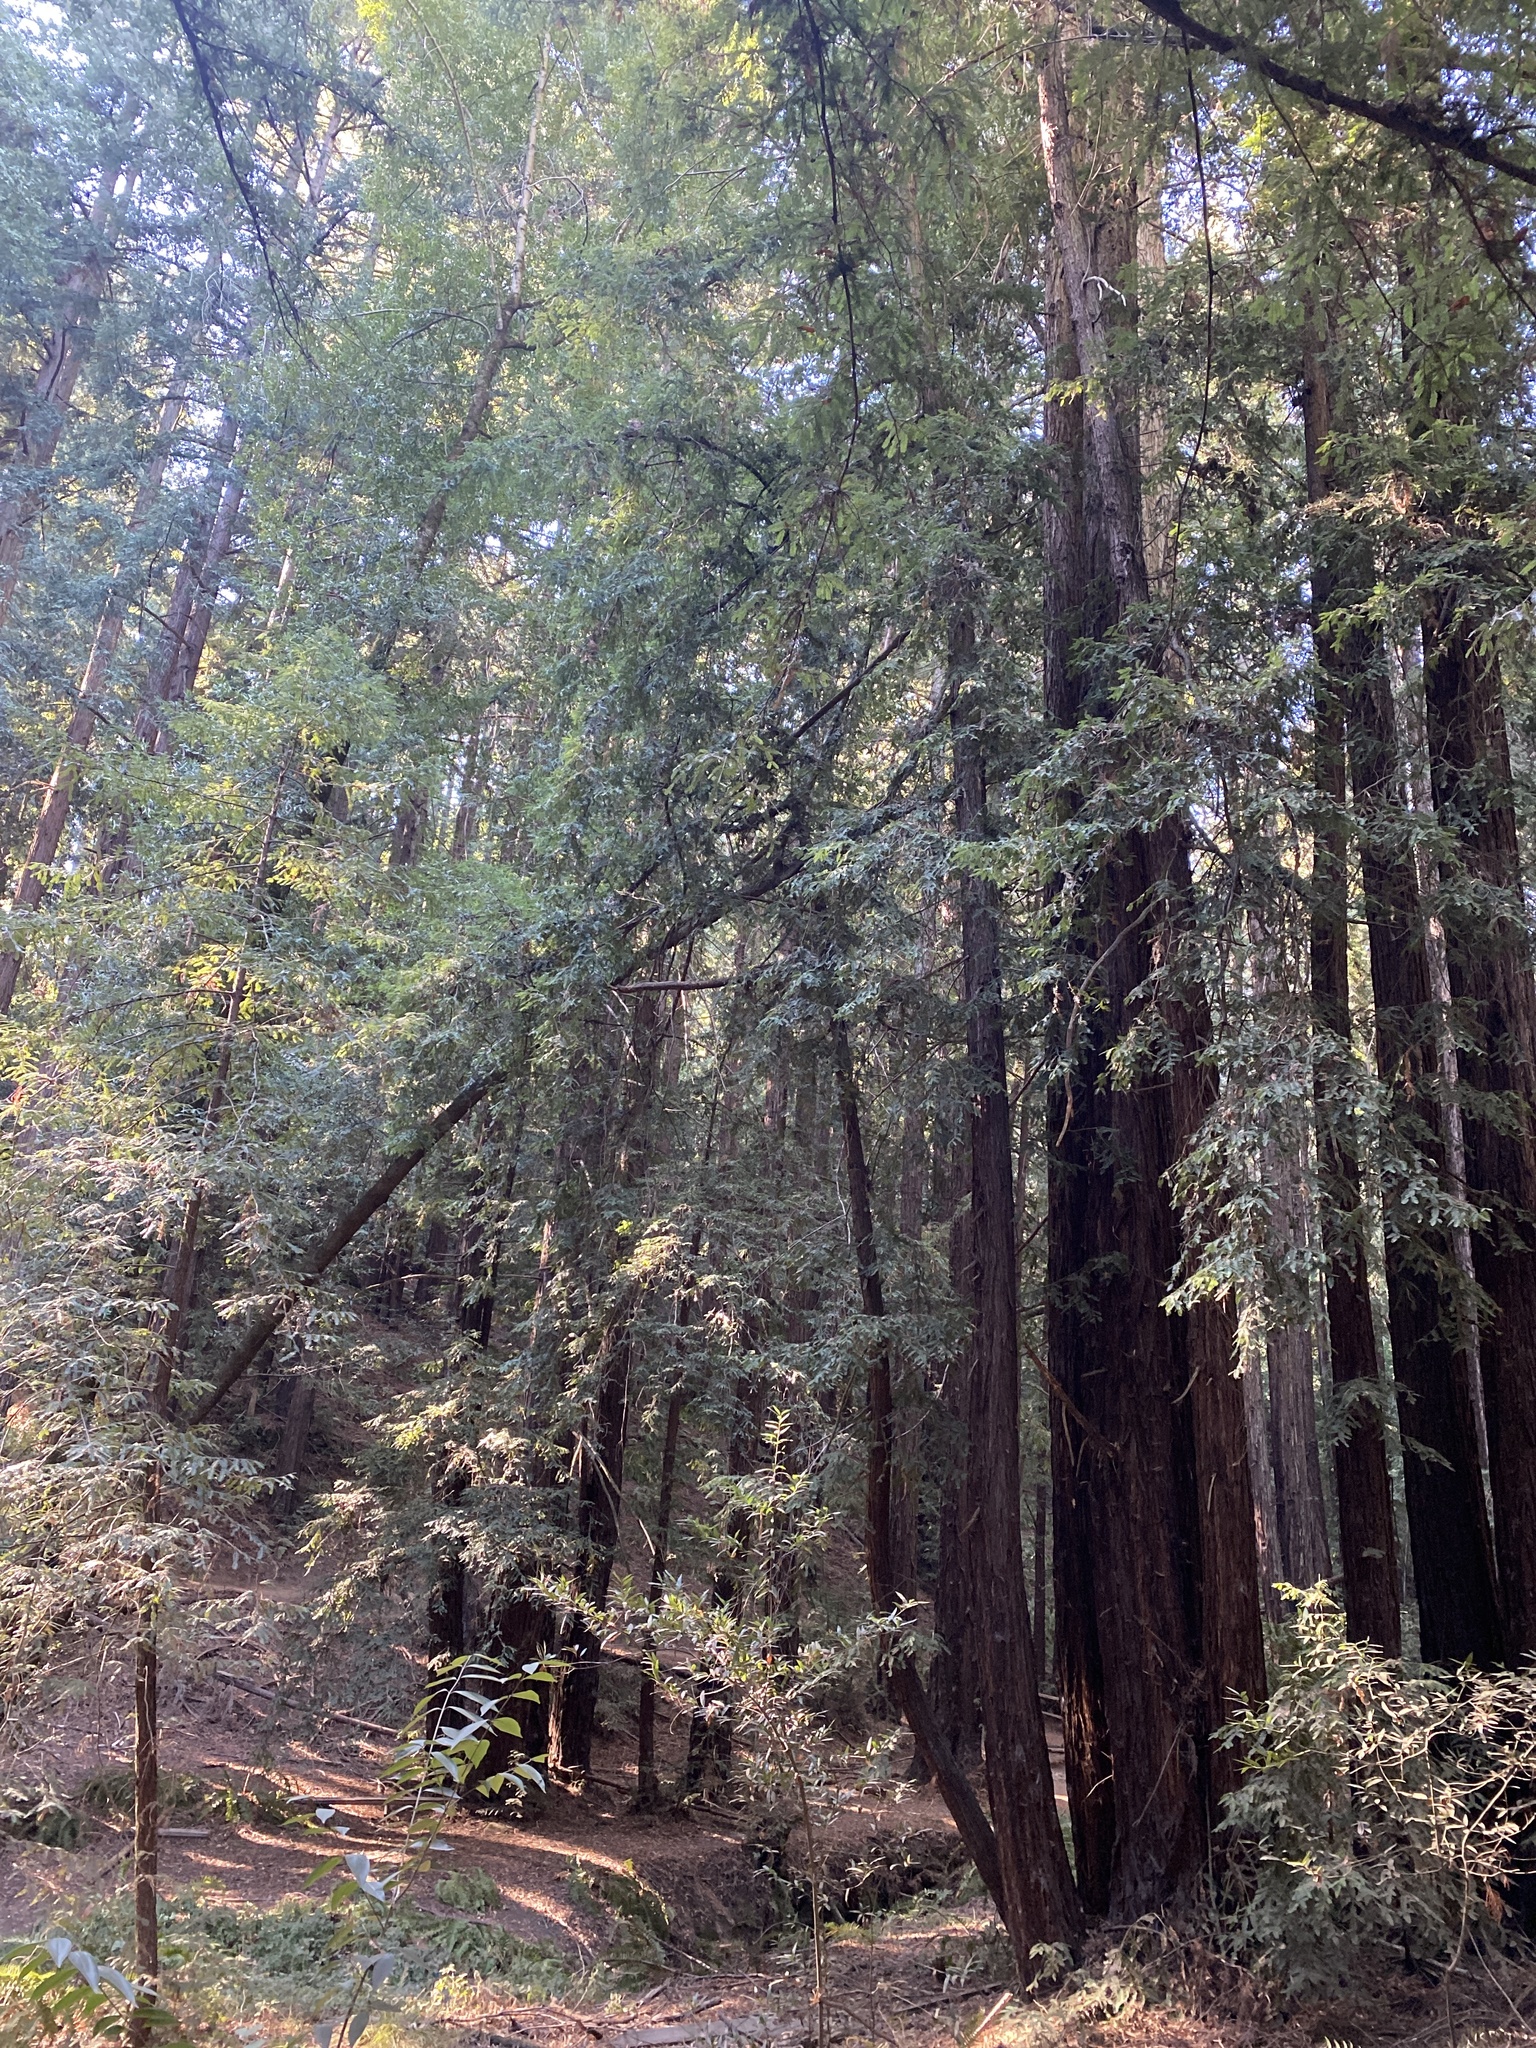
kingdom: Plantae
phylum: Tracheophyta
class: Pinopsida
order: Pinales
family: Cupressaceae
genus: Sequoia
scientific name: Sequoia sempervirens
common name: Coast redwood
